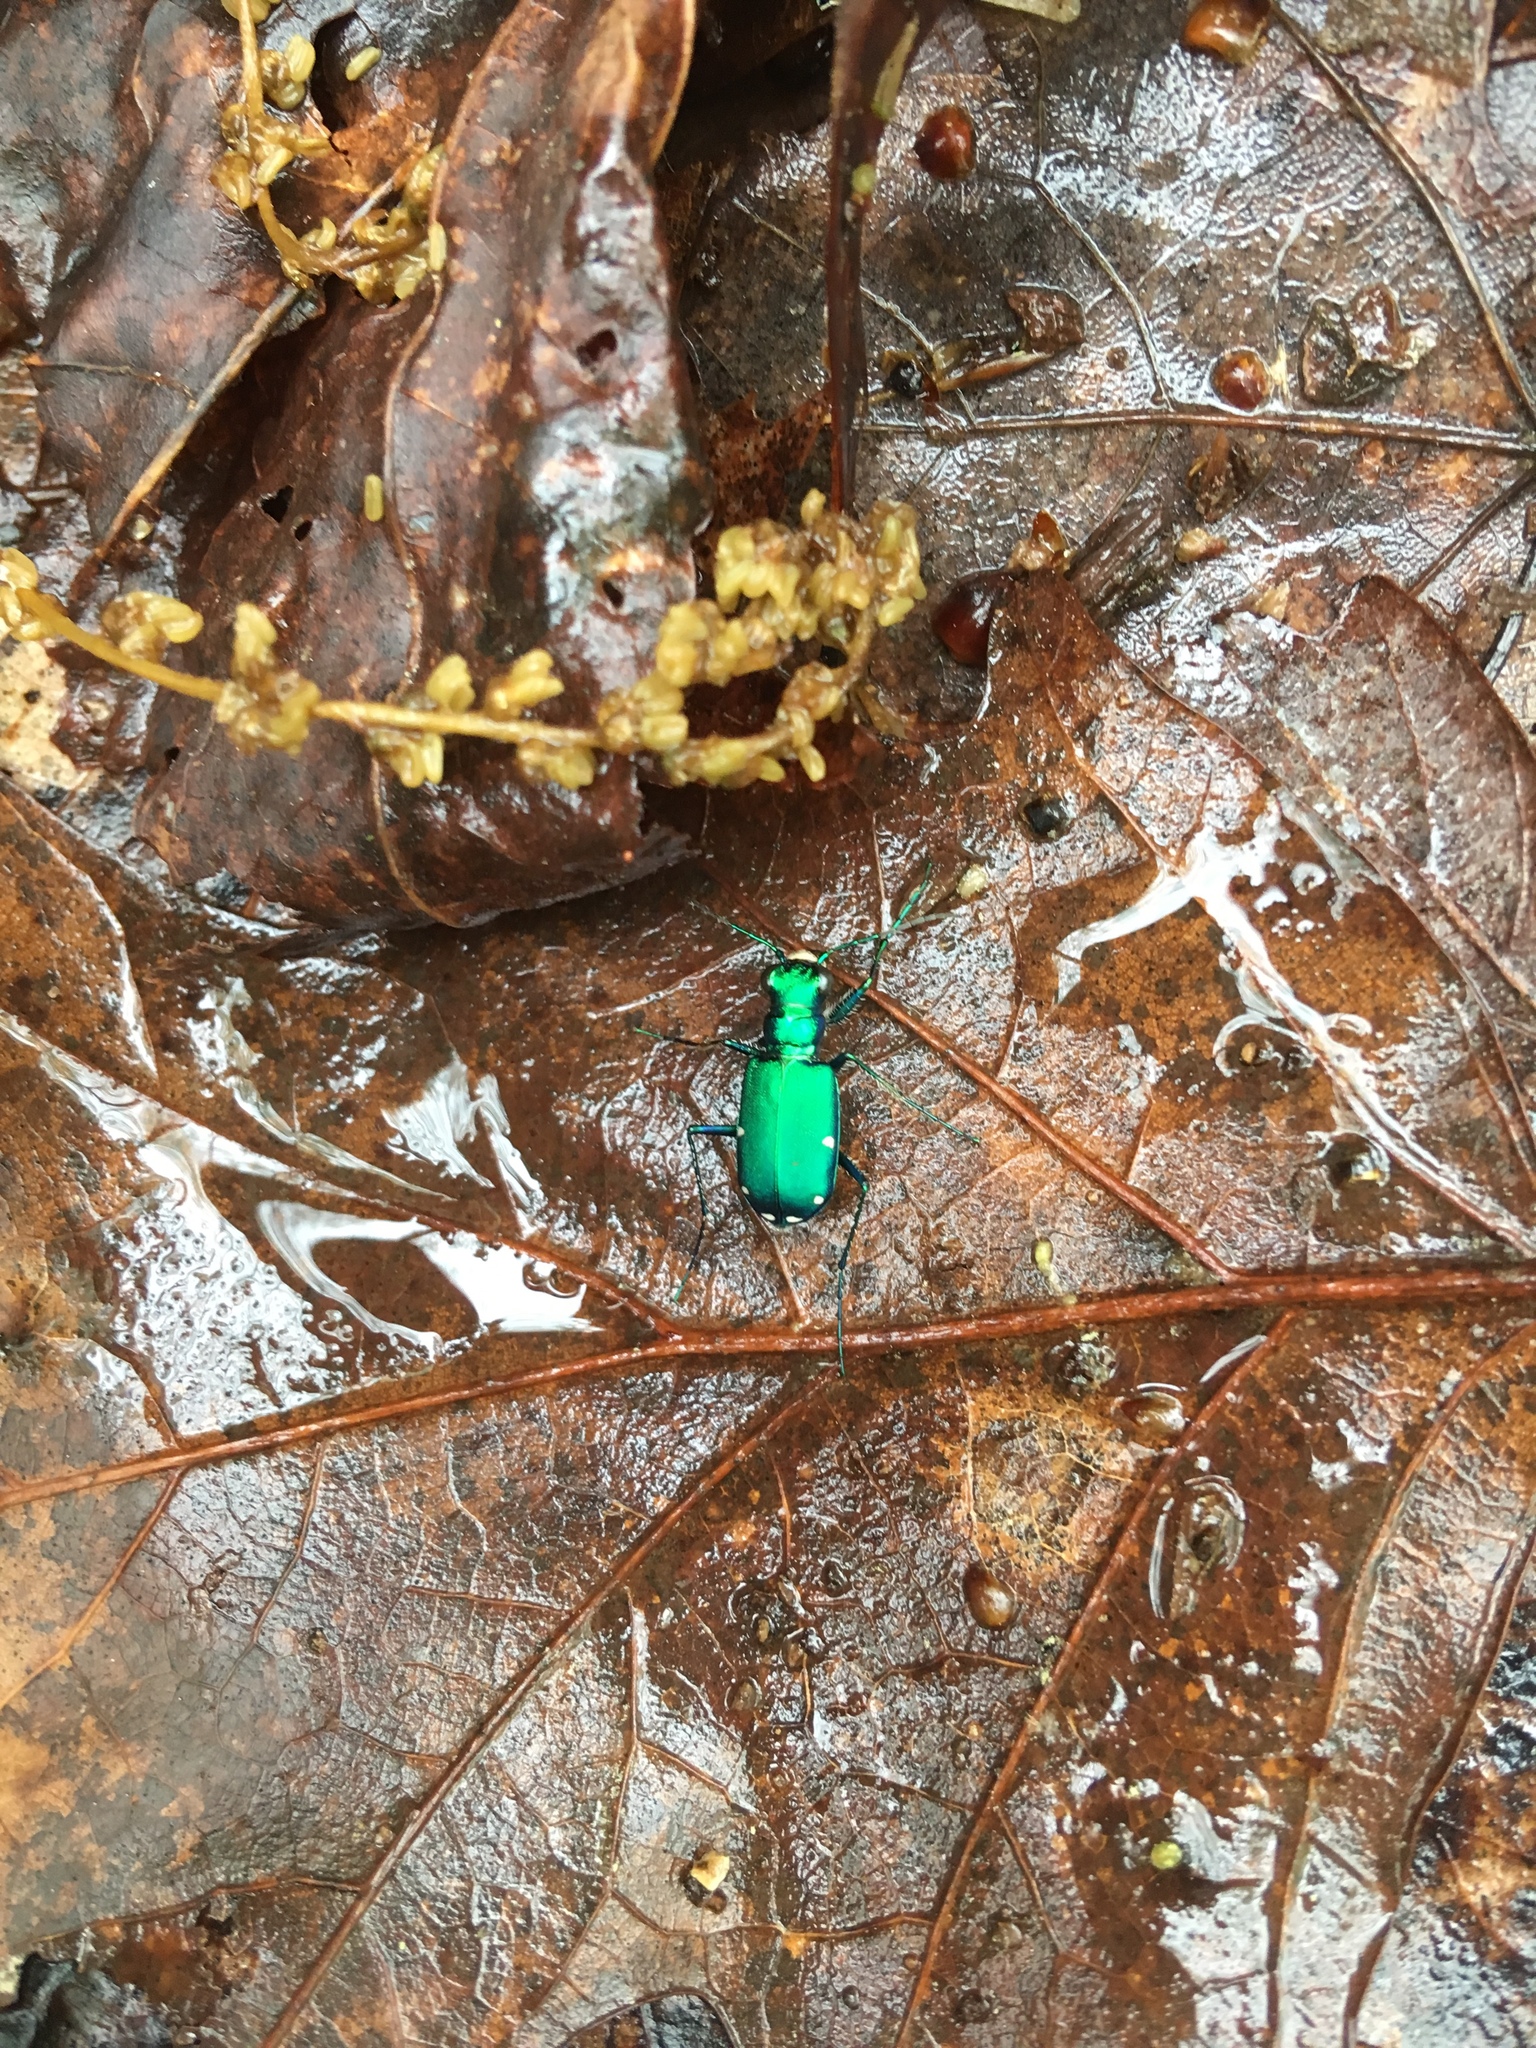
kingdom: Animalia
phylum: Arthropoda
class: Insecta
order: Coleoptera
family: Carabidae
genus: Cicindela
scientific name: Cicindela sexguttata
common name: Six-spotted tiger beetle
